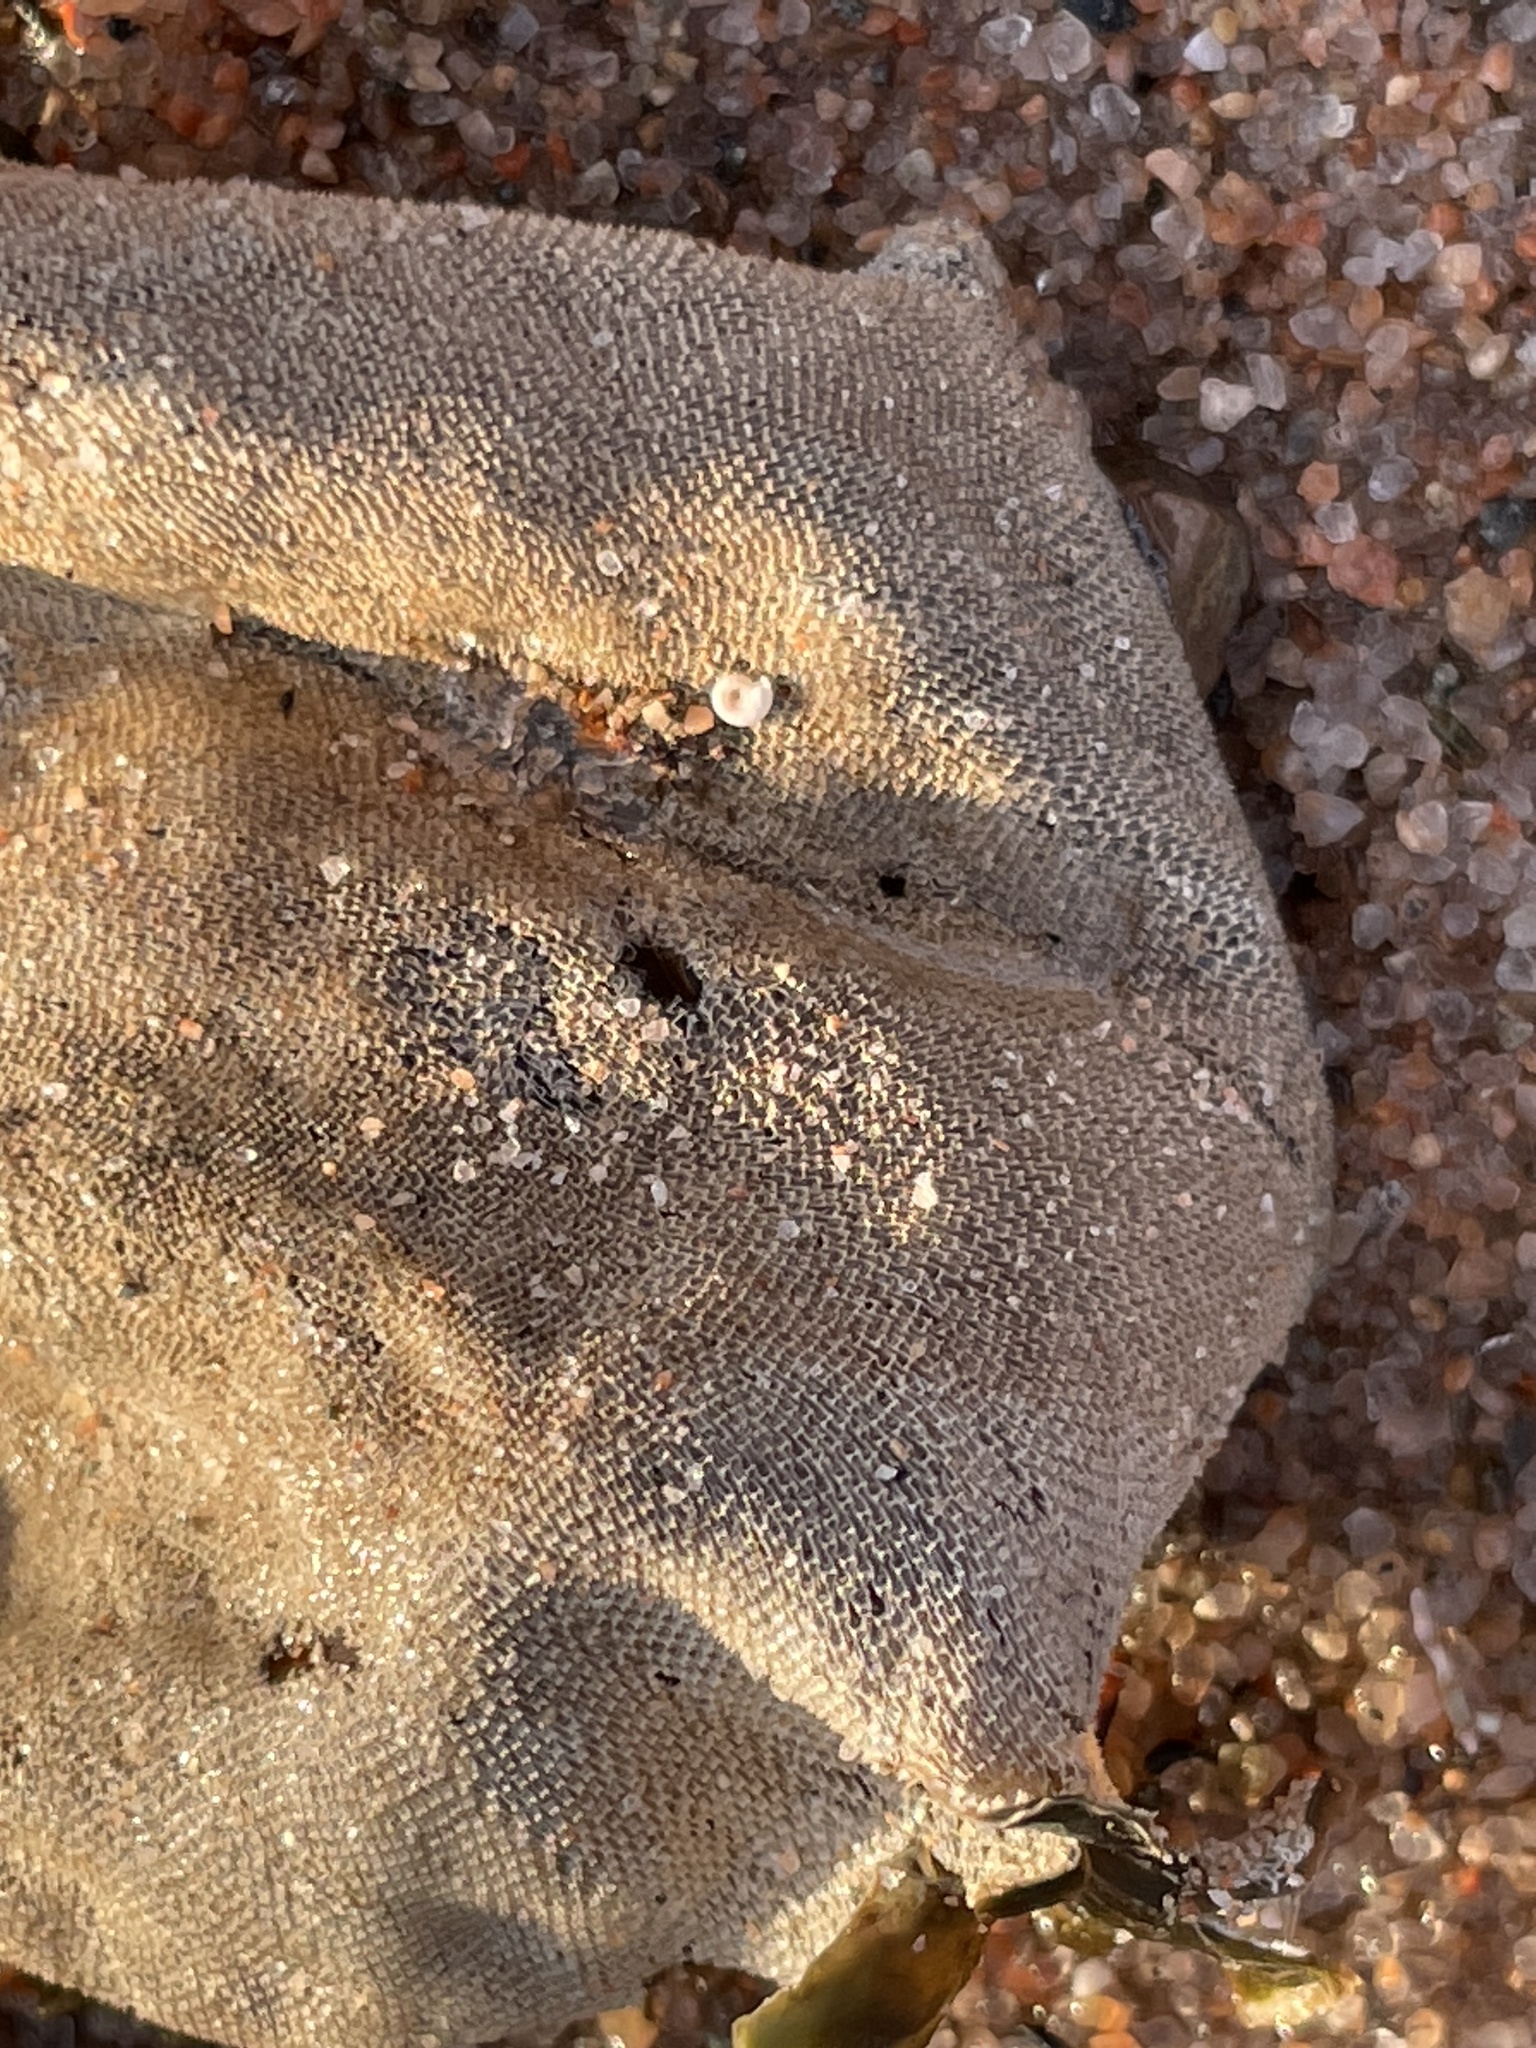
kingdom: Animalia
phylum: Bryozoa
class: Gymnolaemata
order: Cheilostomatida
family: Membraniporidae
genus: Membranipora
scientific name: Membranipora membranacea
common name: Sea mat
